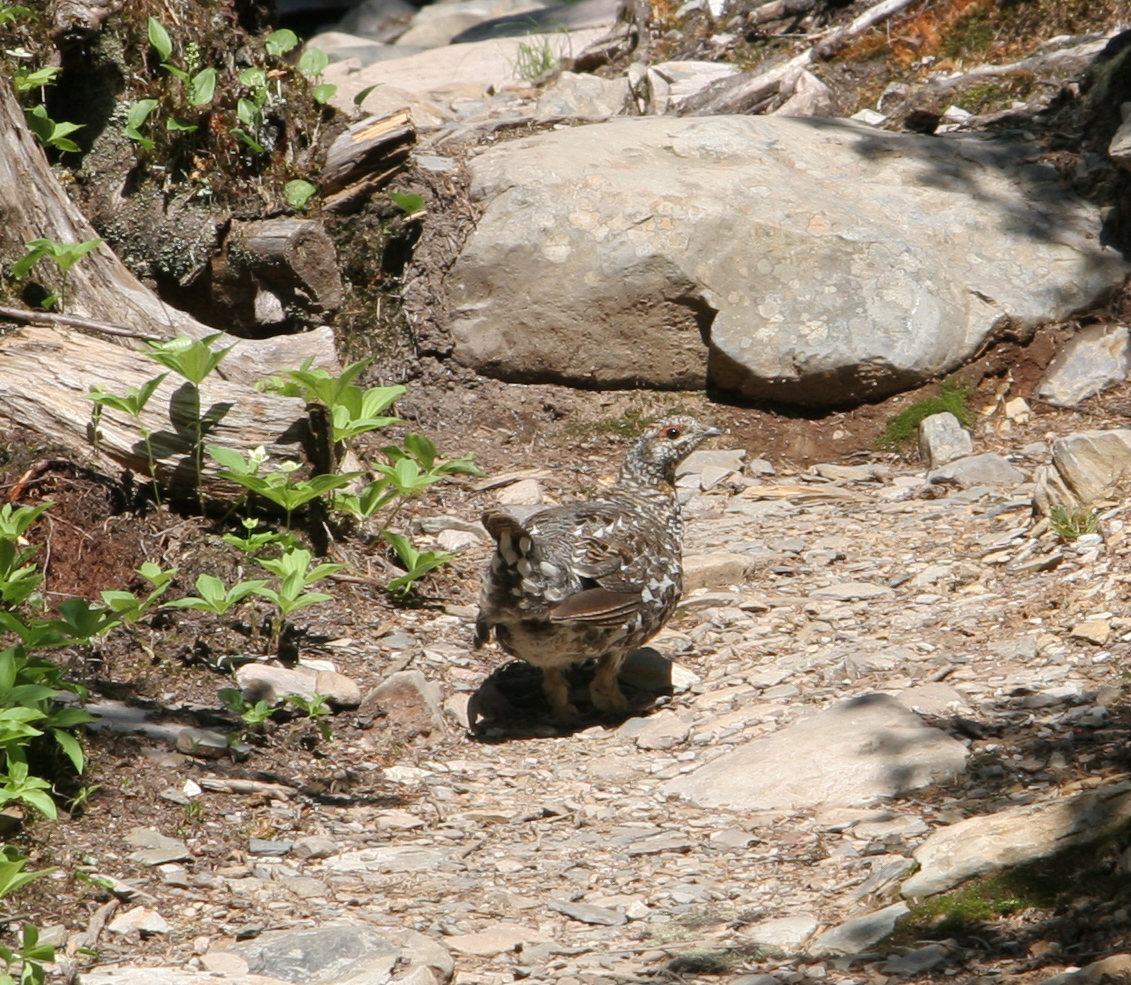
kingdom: Animalia
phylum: Chordata
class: Aves
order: Galliformes
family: Phasianidae
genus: Canachites
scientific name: Canachites canadensis
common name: Spruce grouse
